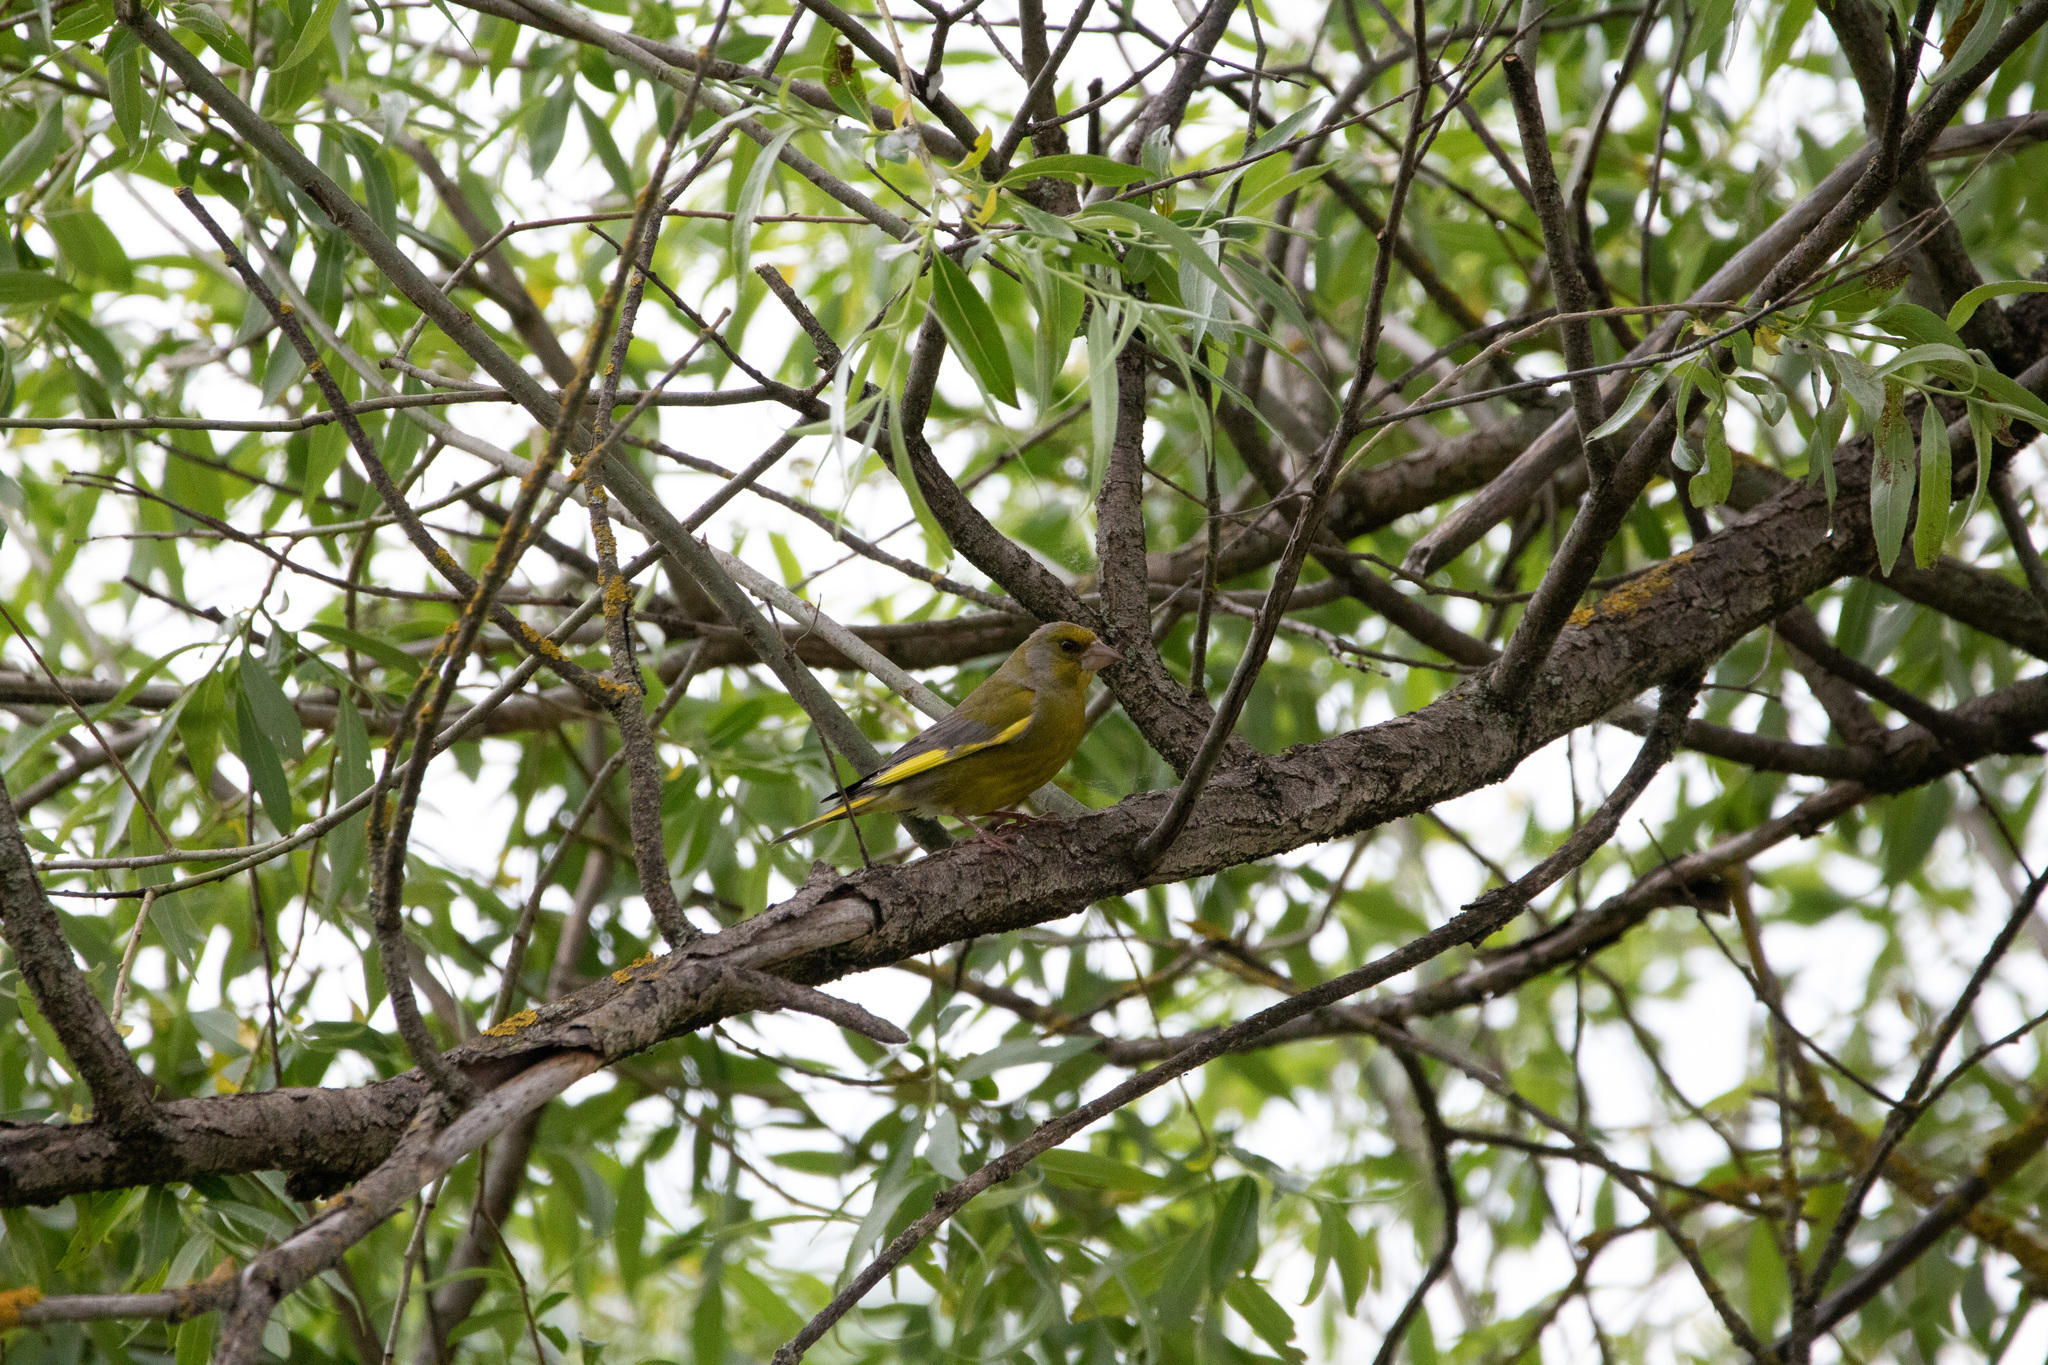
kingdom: Plantae
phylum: Tracheophyta
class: Liliopsida
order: Poales
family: Poaceae
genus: Chloris
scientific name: Chloris chloris
